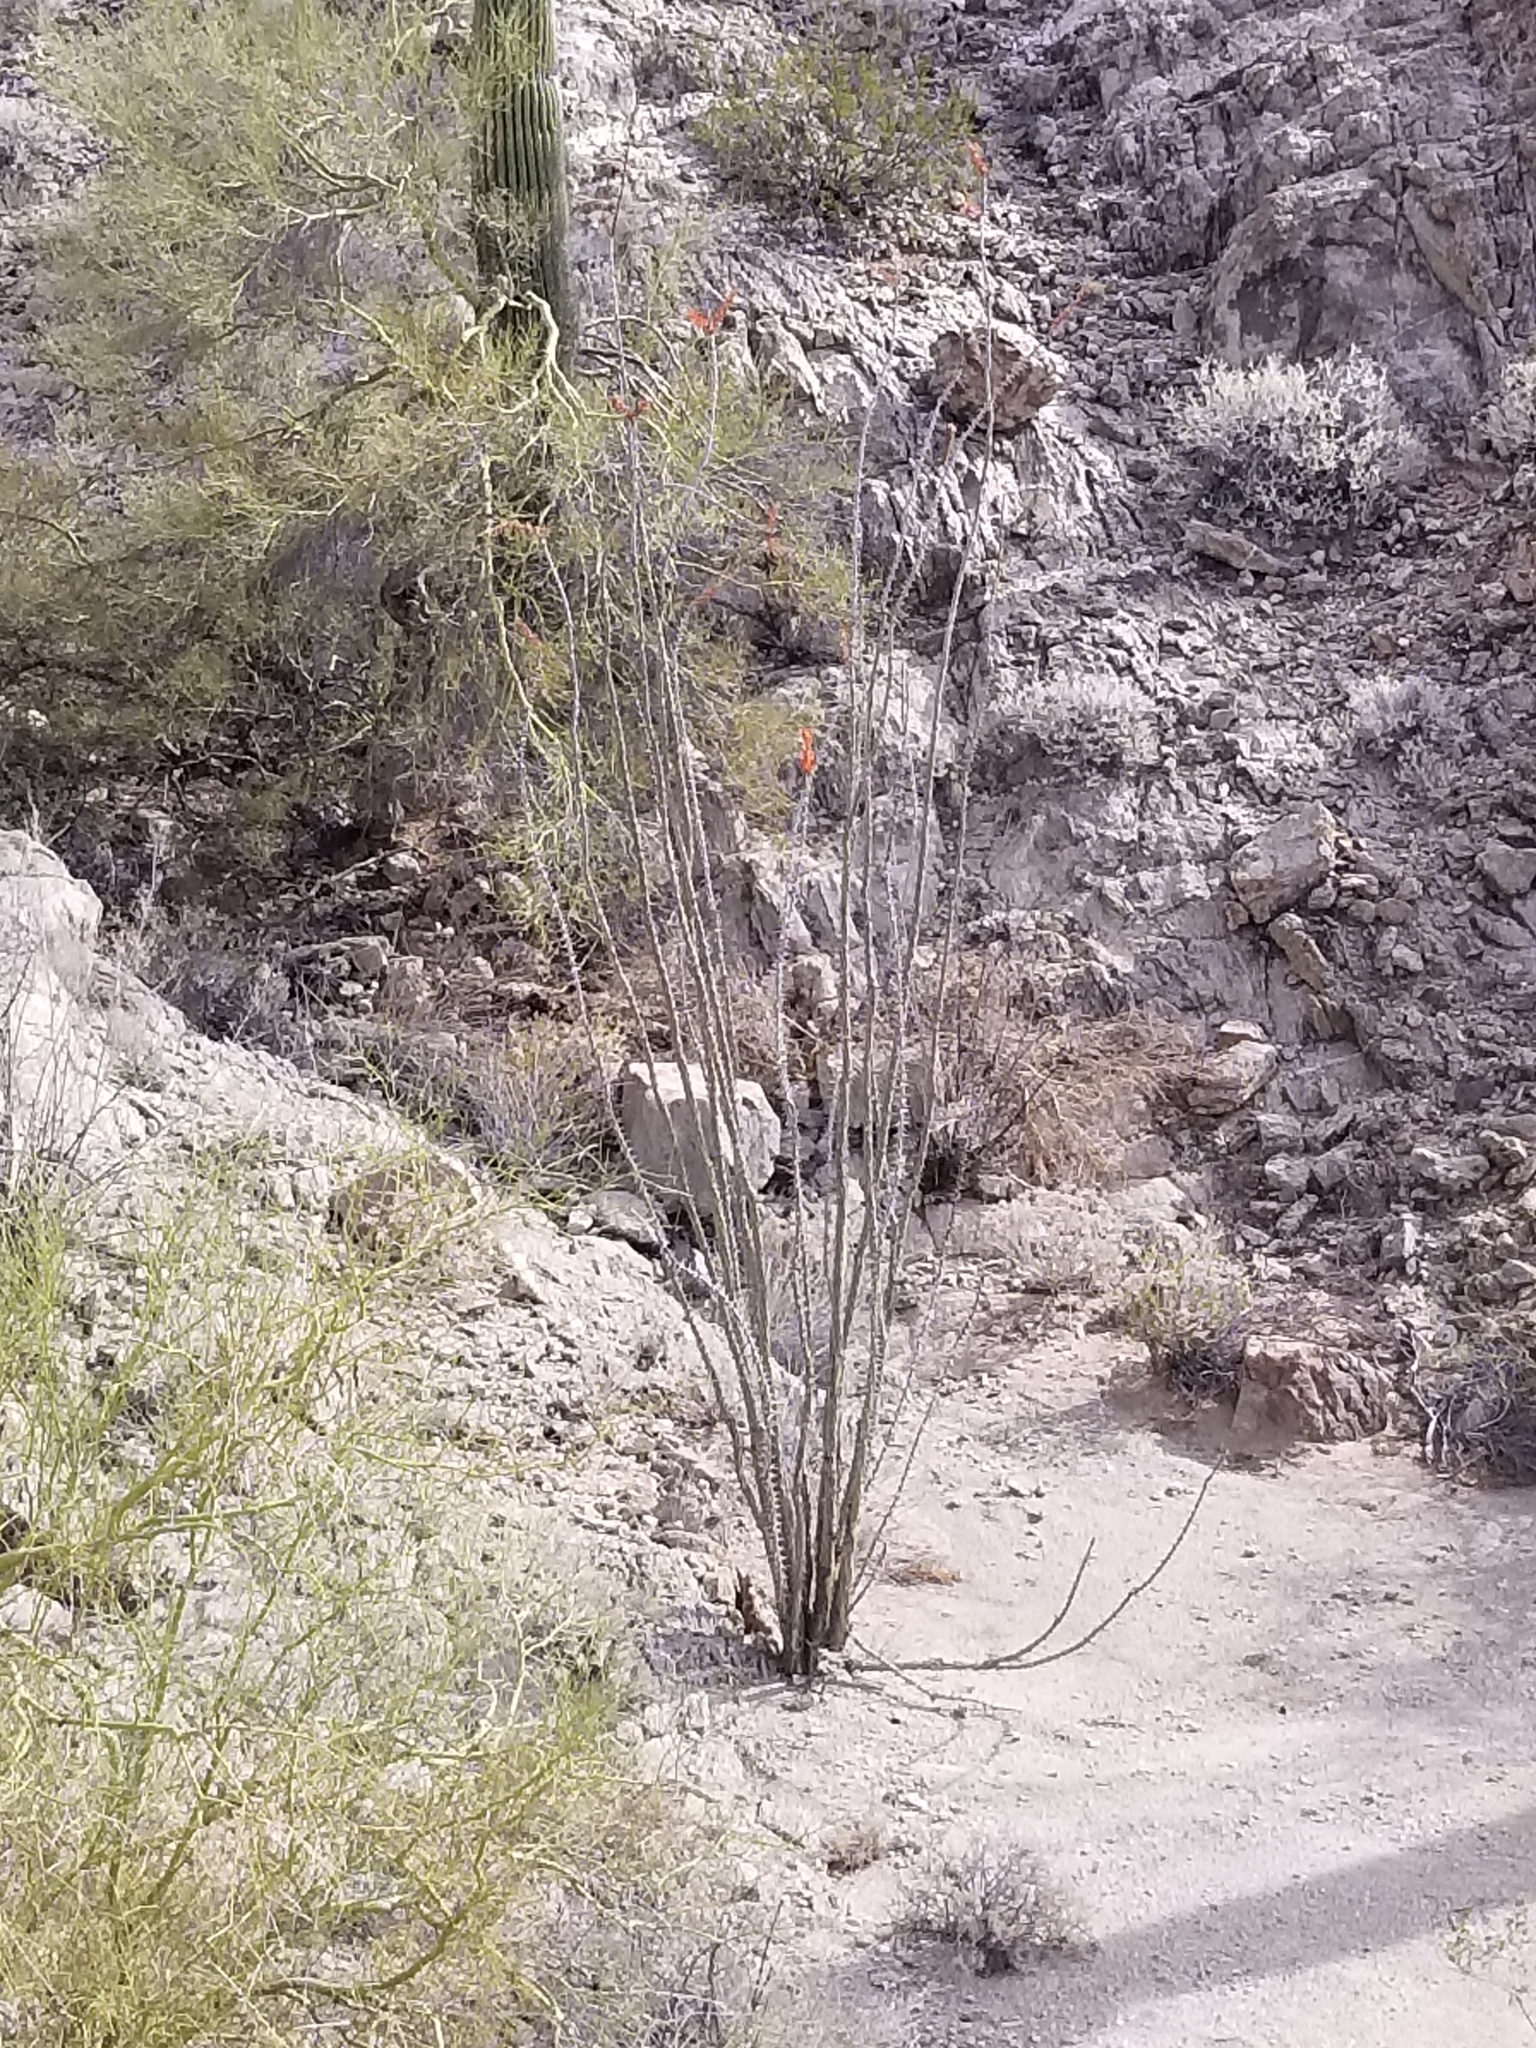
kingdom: Plantae
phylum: Tracheophyta
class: Magnoliopsida
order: Ericales
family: Fouquieriaceae
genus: Fouquieria
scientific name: Fouquieria splendens
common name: Vine-cactus
